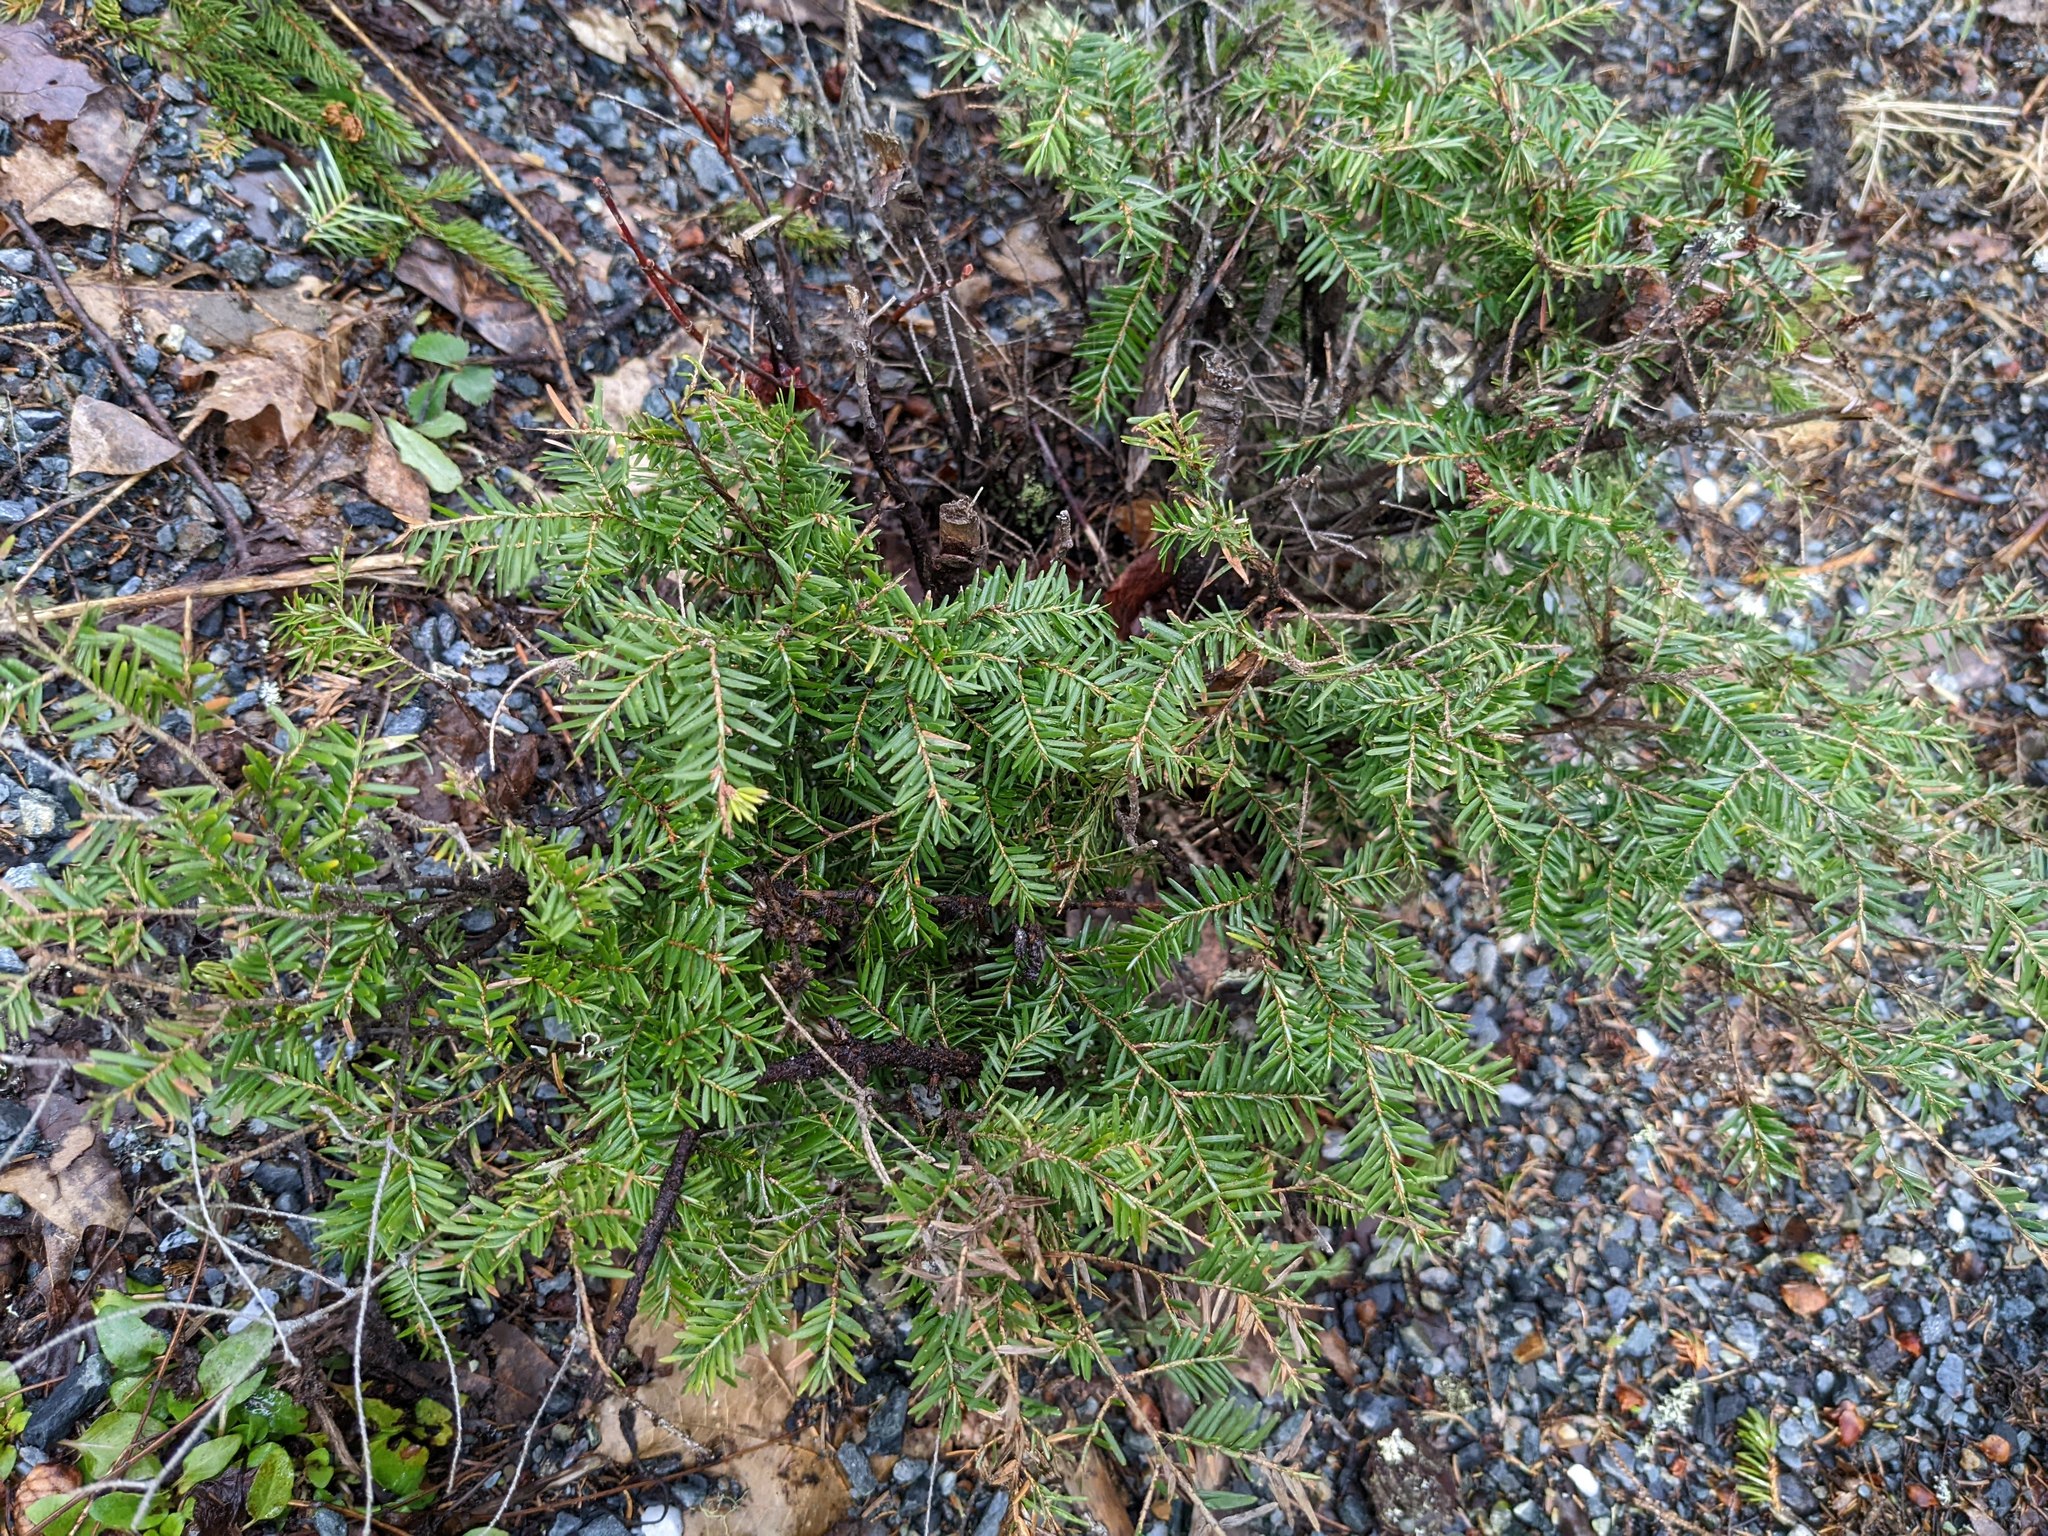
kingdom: Plantae
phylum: Tracheophyta
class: Pinopsida
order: Pinales
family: Pinaceae
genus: Tsuga
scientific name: Tsuga canadensis
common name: Eastern hemlock
